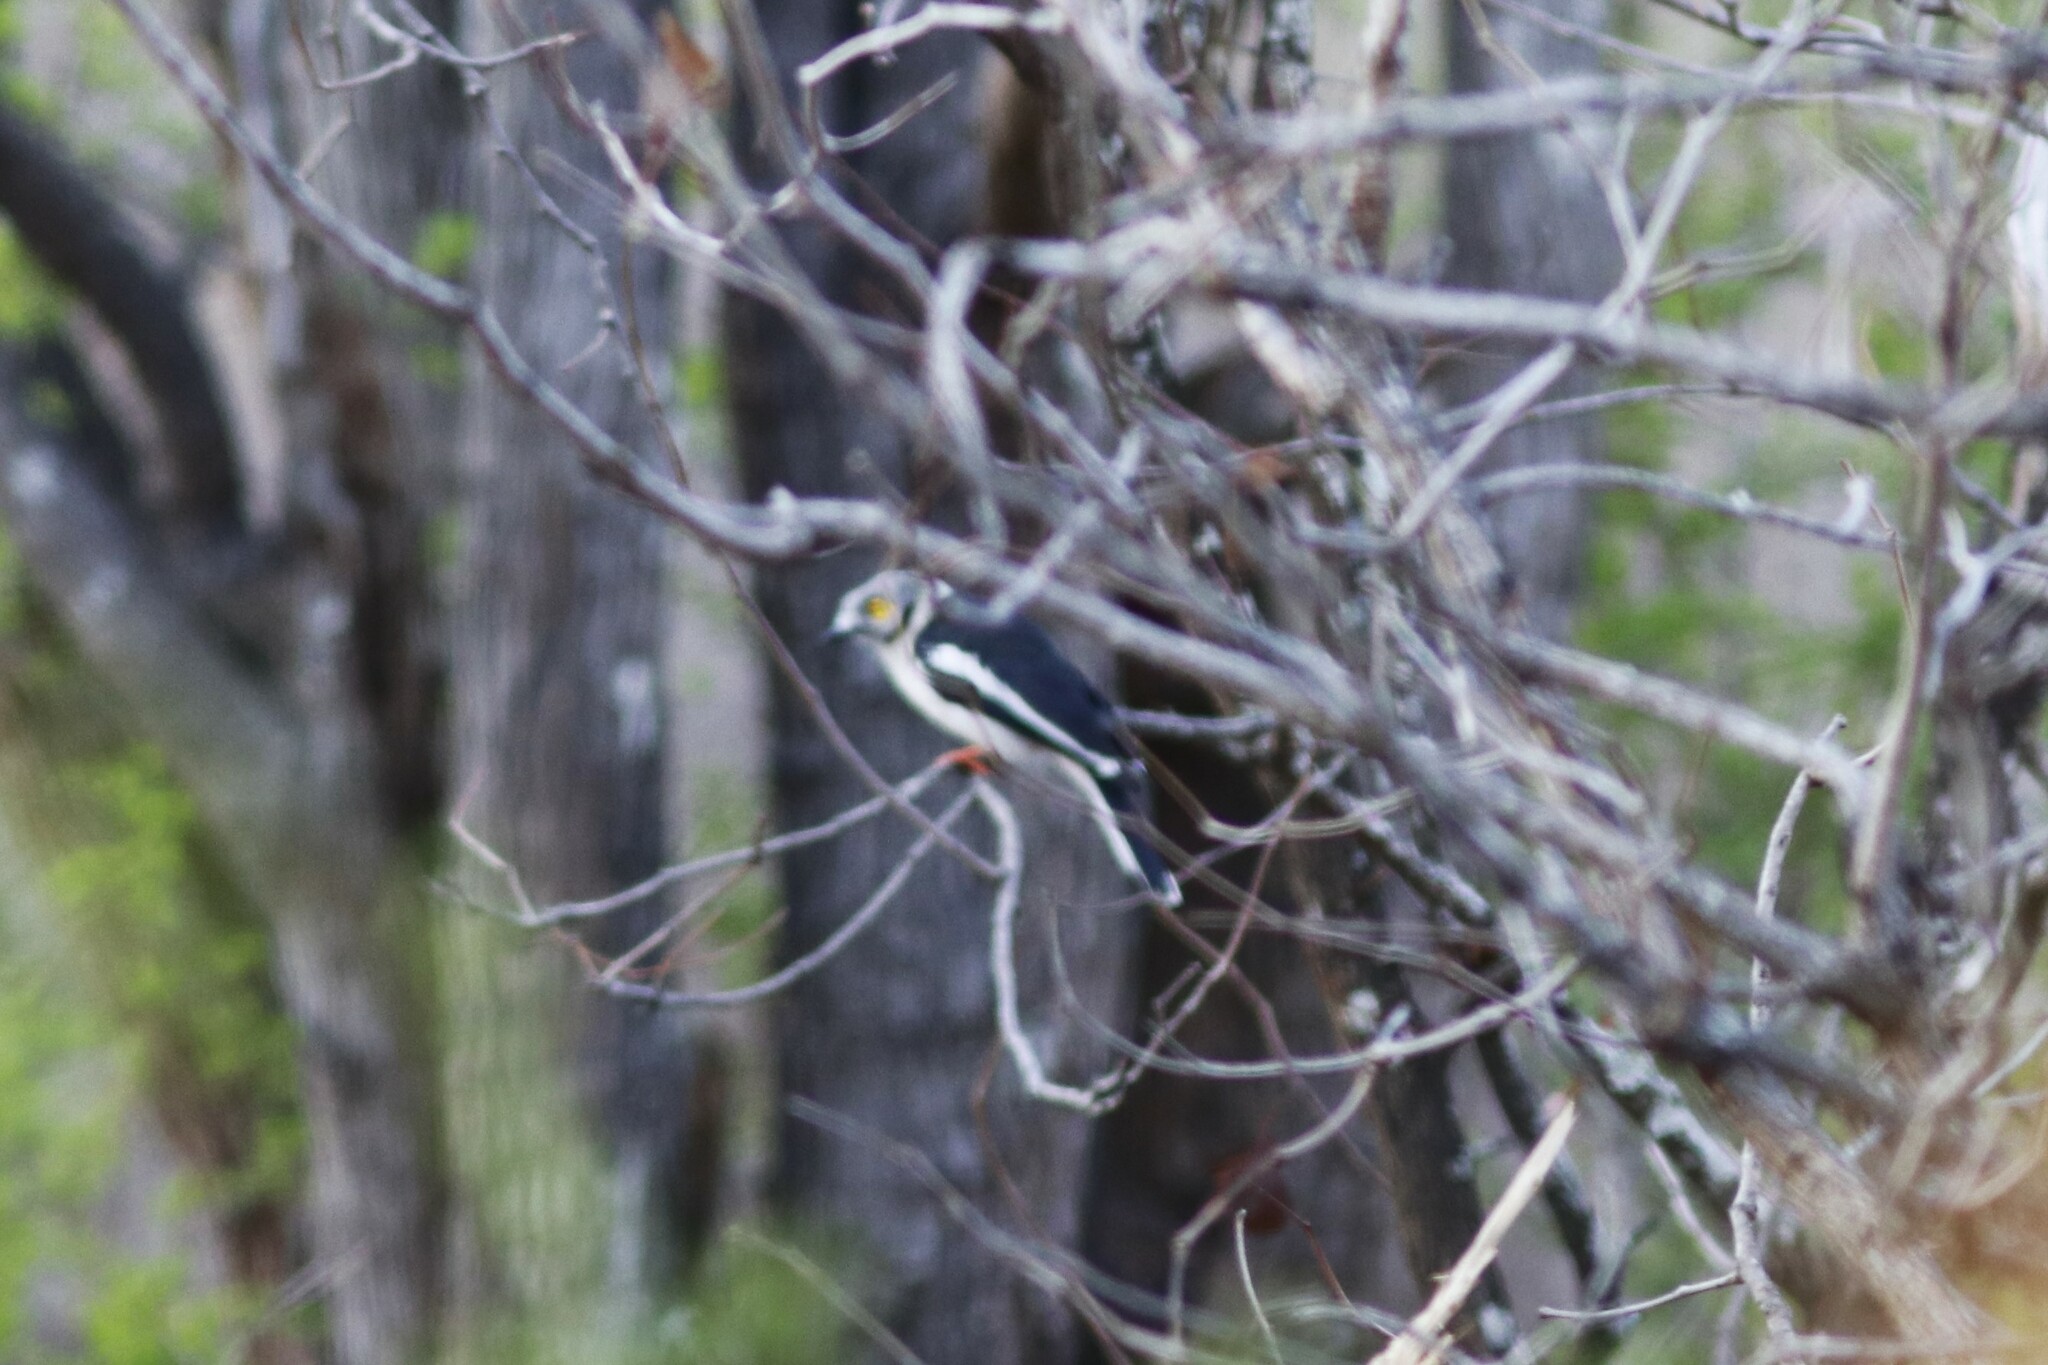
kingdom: Animalia
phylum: Chordata
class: Aves
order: Passeriformes
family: Prionopidae
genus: Prionops
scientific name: Prionops plumatus
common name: White-crested helmetshrike
